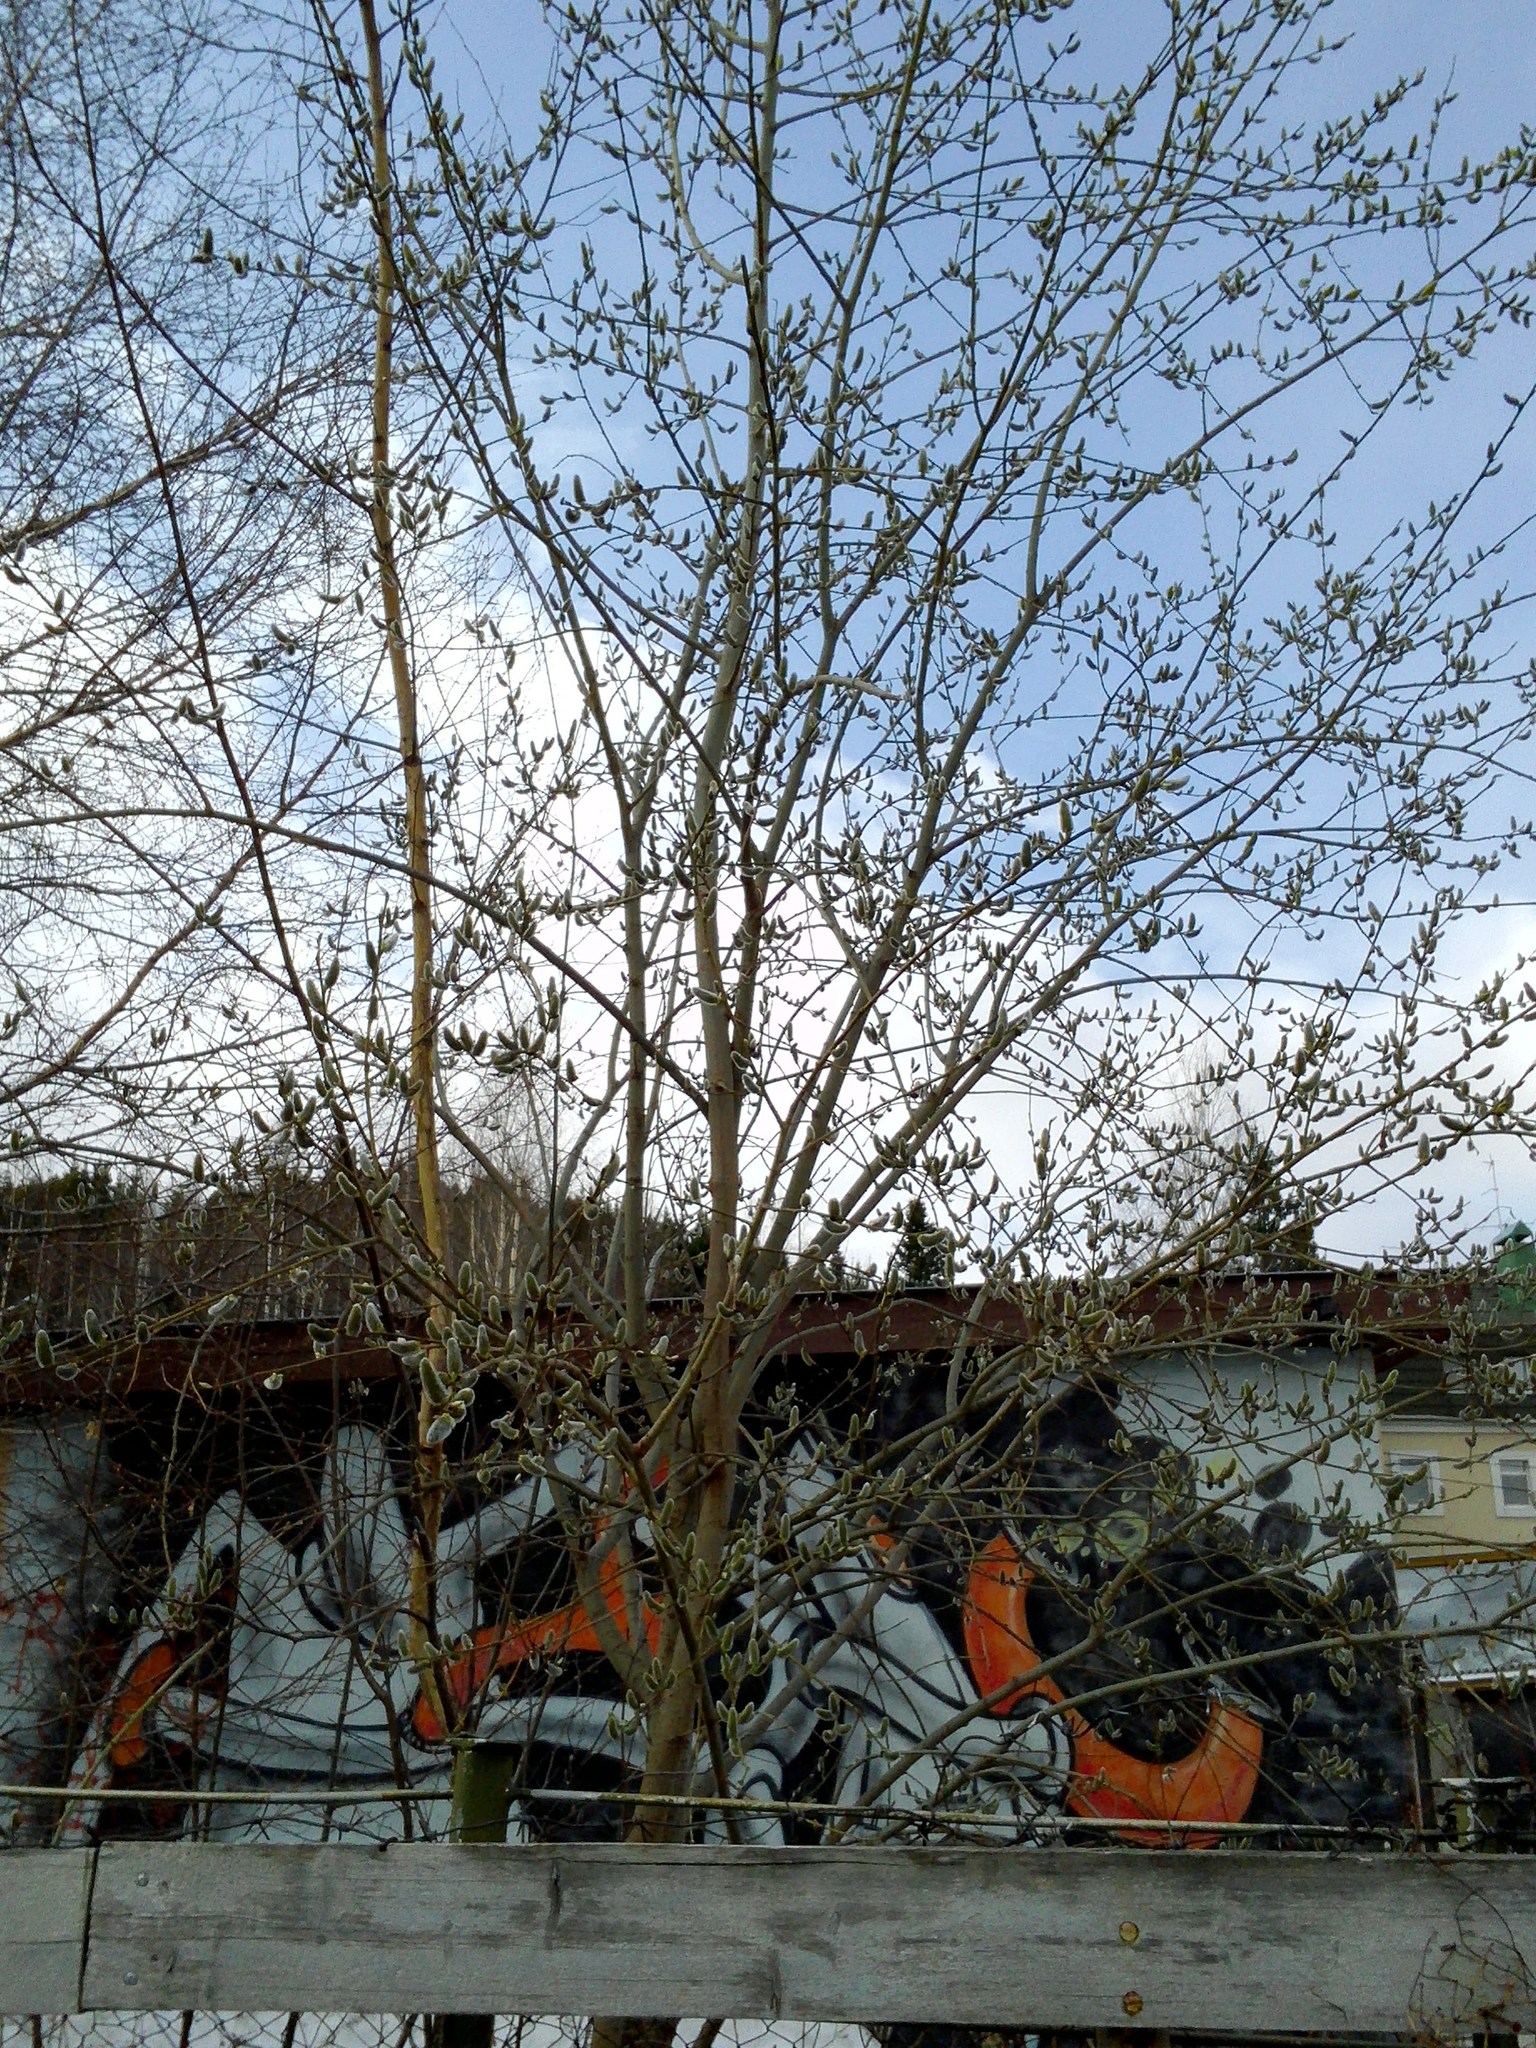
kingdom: Plantae
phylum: Tracheophyta
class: Magnoliopsida
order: Malpighiales
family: Salicaceae
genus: Salix
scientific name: Salix caprea
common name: Goat willow
